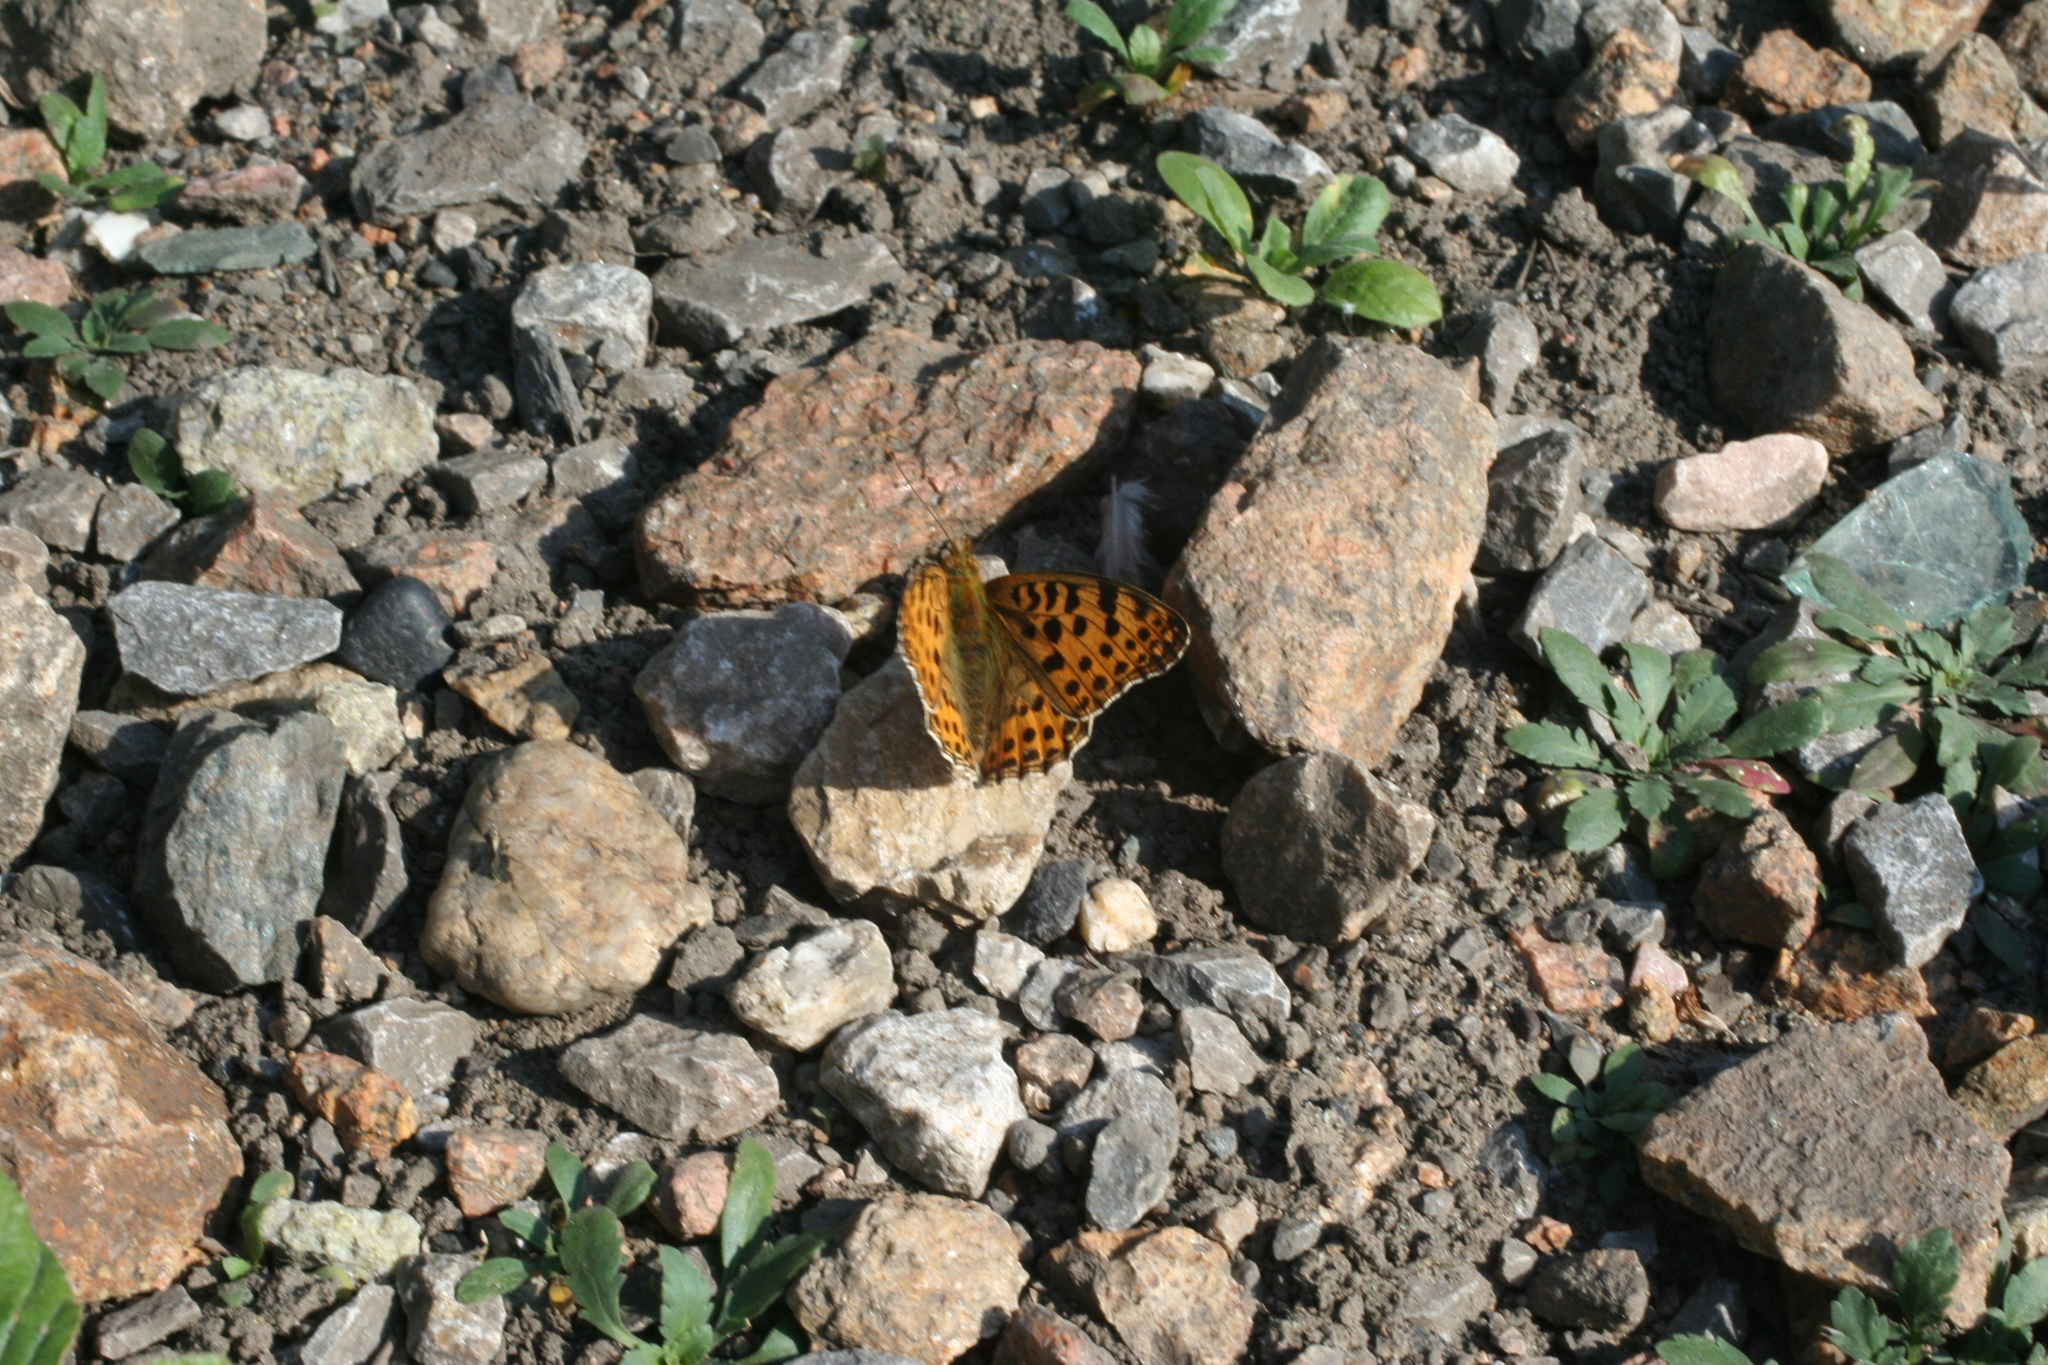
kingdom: Animalia
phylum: Arthropoda
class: Insecta
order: Lepidoptera
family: Nymphalidae
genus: Issoria
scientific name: Issoria lathonia
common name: Queen of spain fritillary
